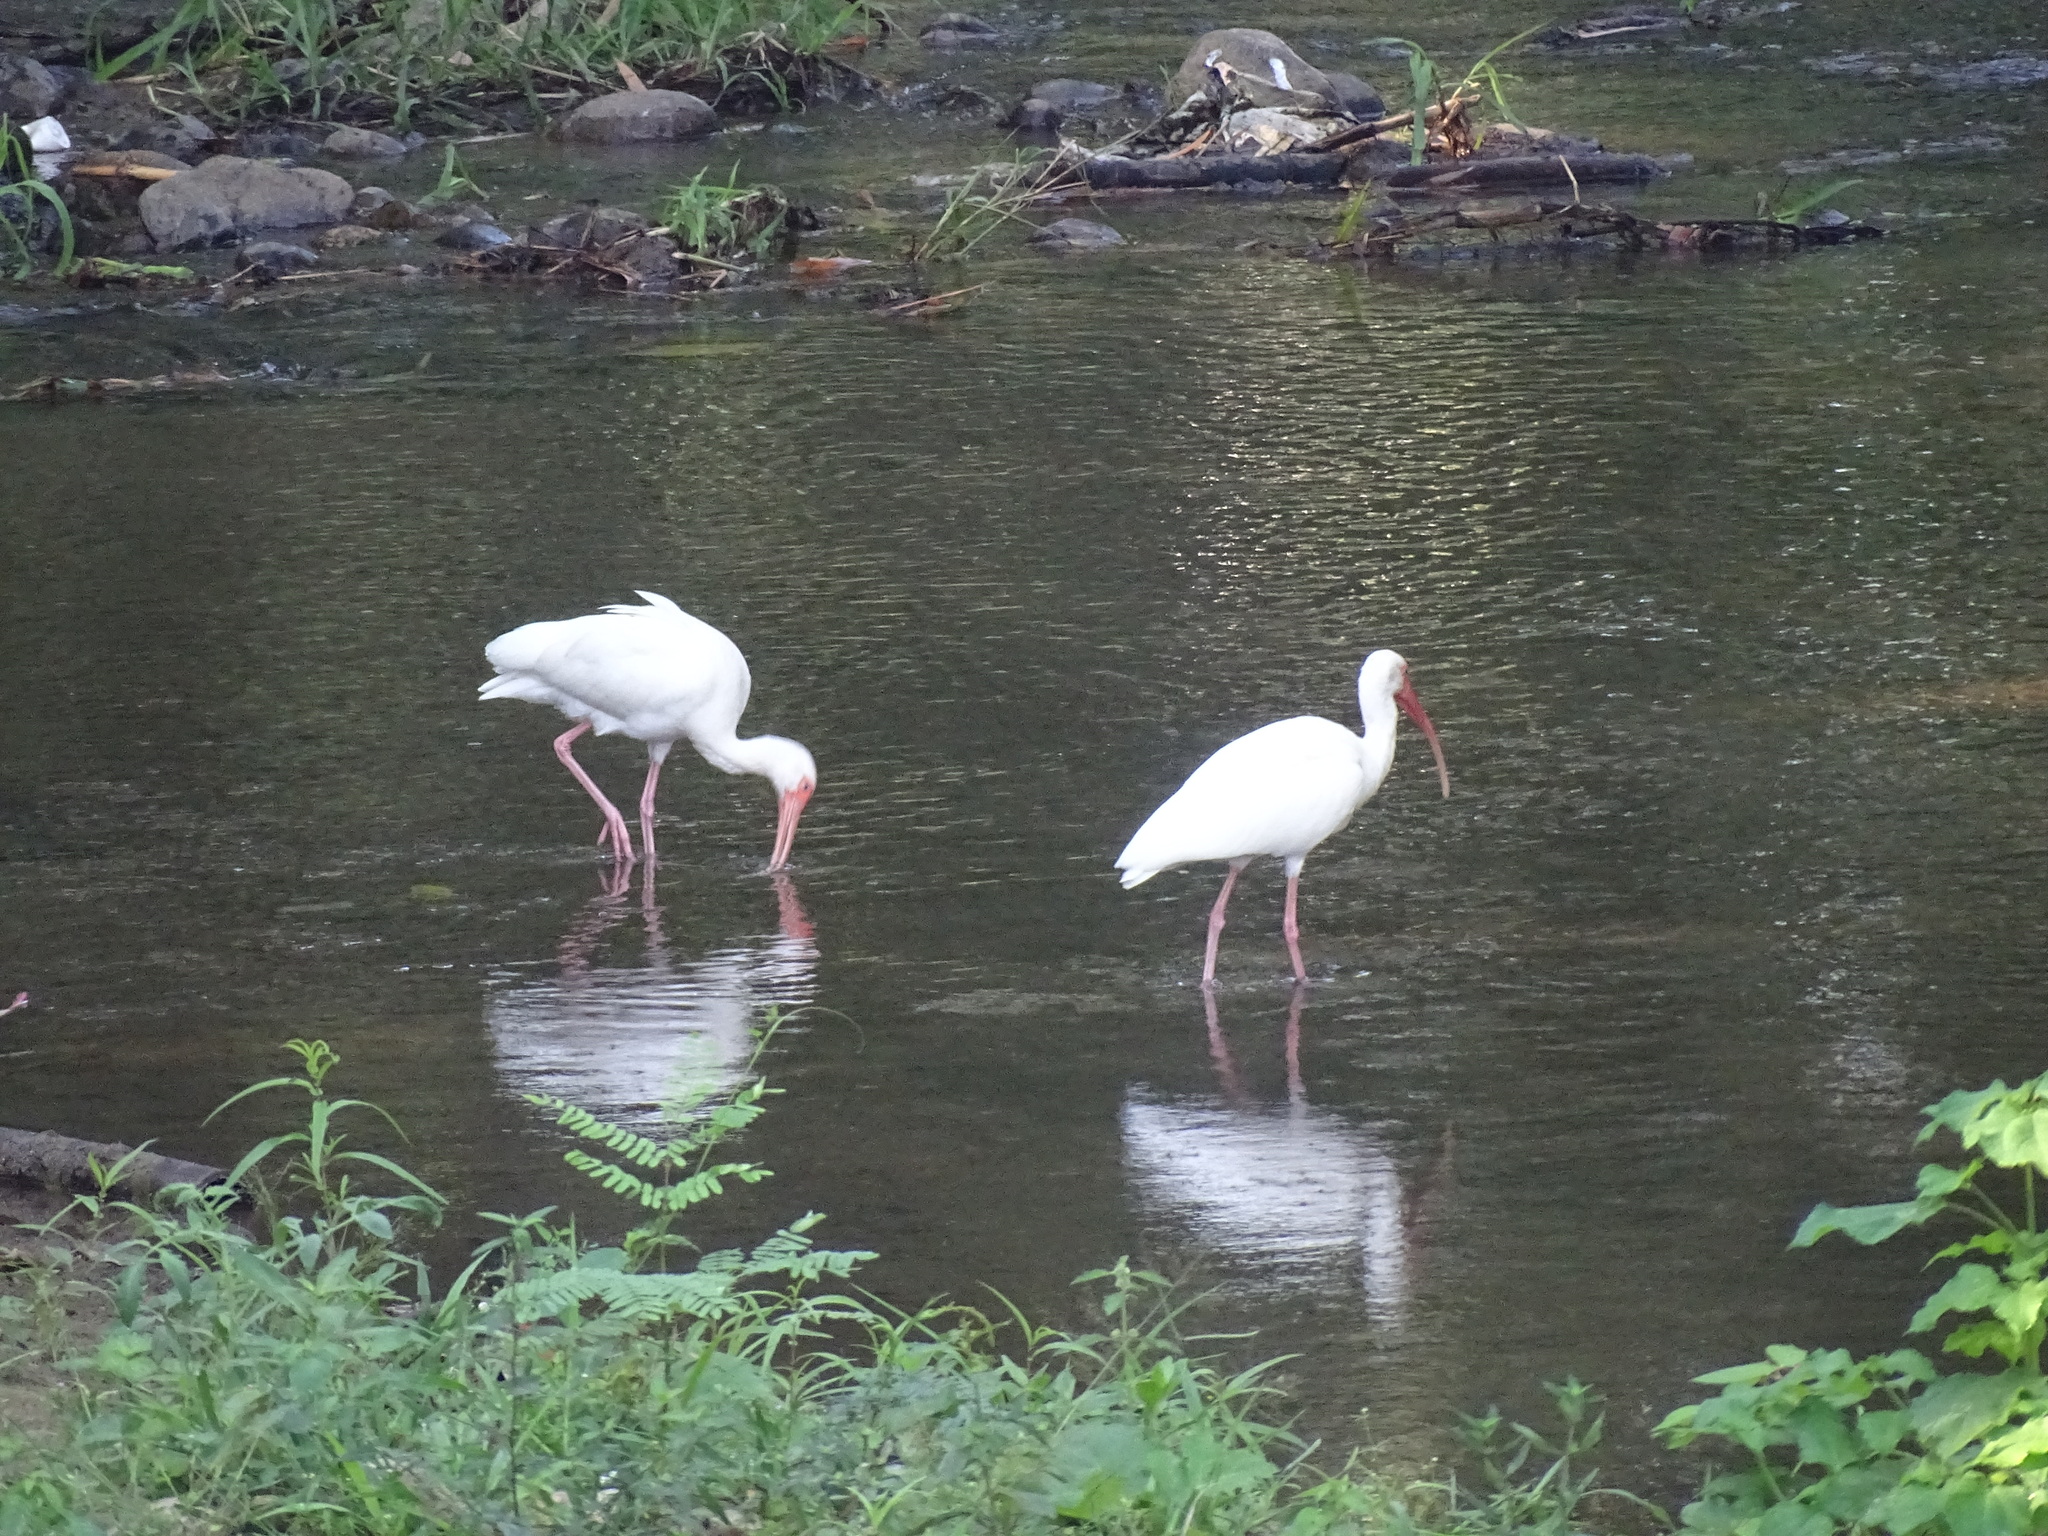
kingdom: Animalia
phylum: Chordata
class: Aves
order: Pelecaniformes
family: Threskiornithidae
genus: Eudocimus
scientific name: Eudocimus albus
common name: White ibis
